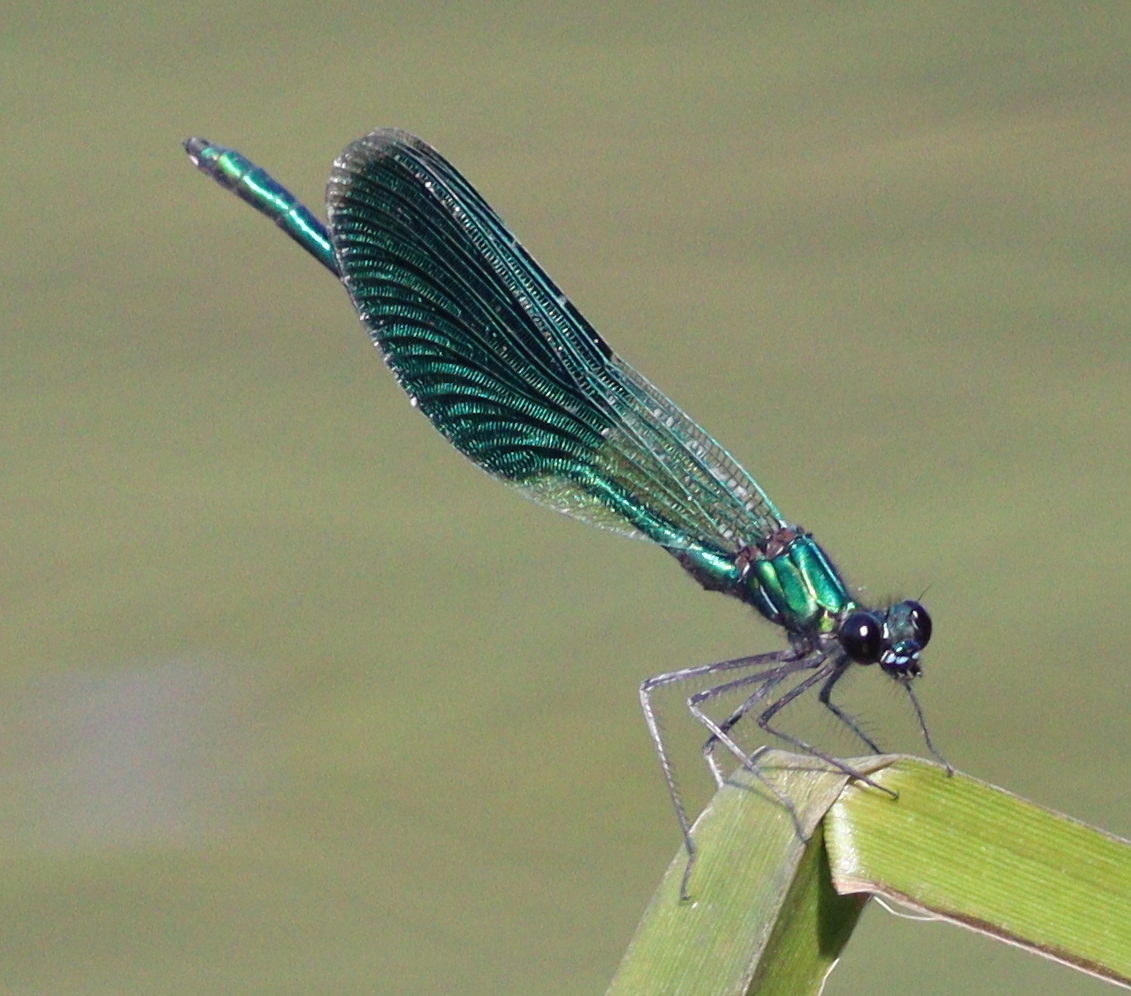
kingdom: Animalia
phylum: Arthropoda
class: Insecta
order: Odonata
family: Calopterygidae
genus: Calopteryx
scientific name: Calopteryx splendens
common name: Banded demoiselle
